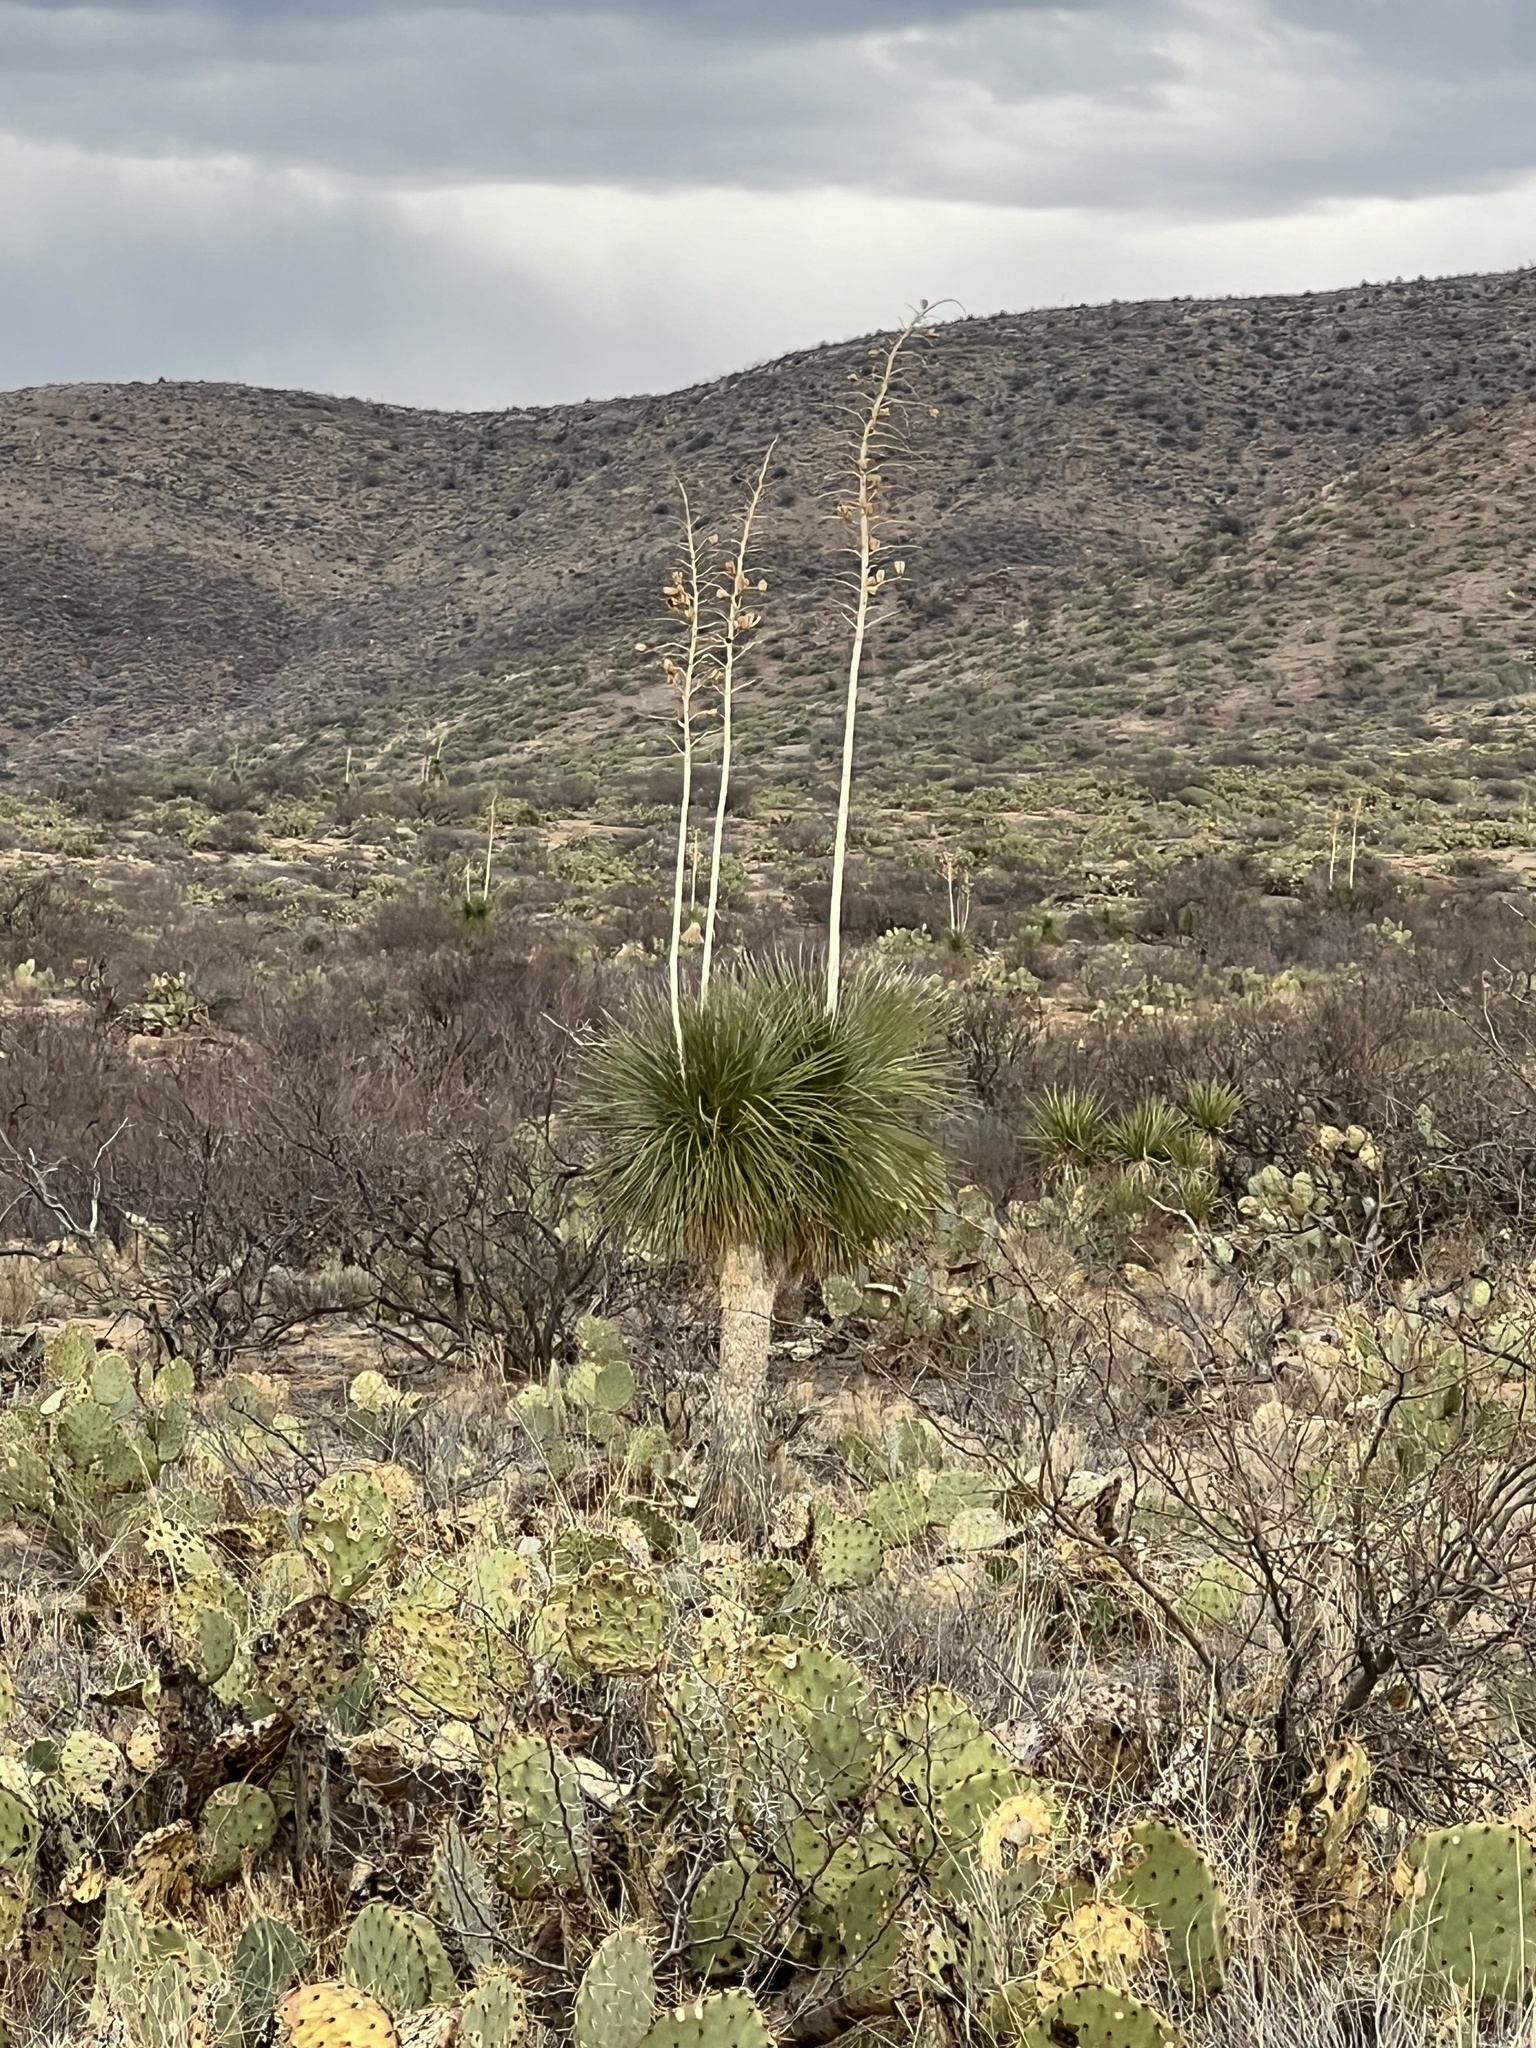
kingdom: Plantae
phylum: Tracheophyta
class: Liliopsida
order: Asparagales
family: Asparagaceae
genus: Yucca
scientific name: Yucca elata
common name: Palmella
